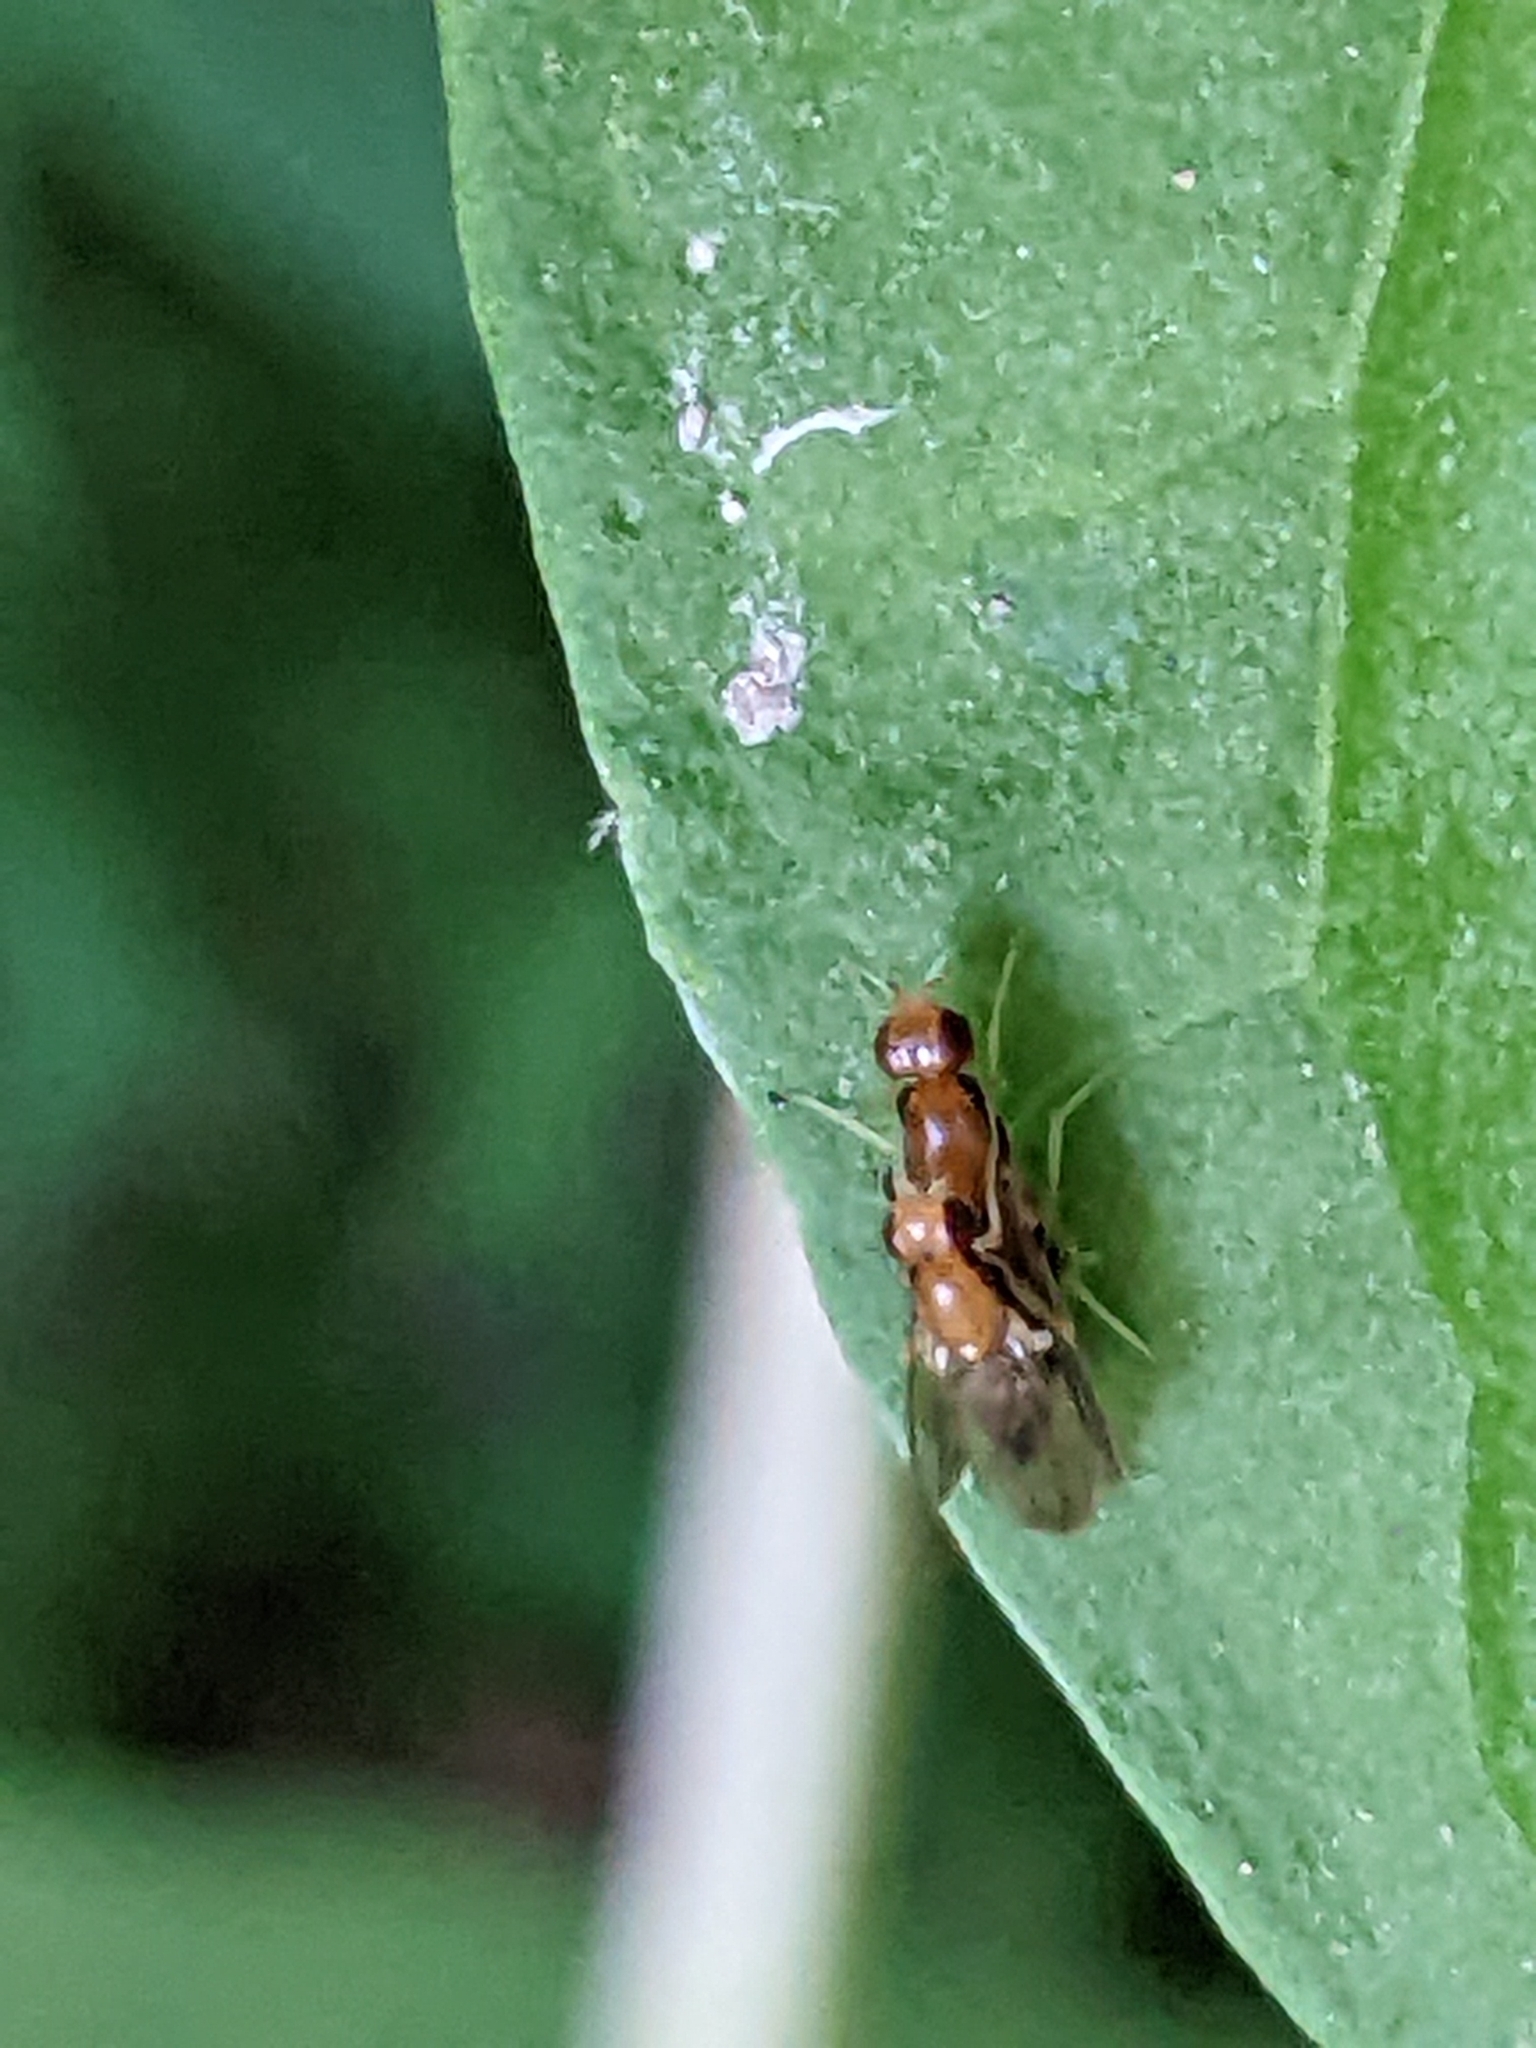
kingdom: Animalia
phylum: Arthropoda
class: Insecta
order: Diptera
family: Psilidae
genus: Psila
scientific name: Psila lateralis
